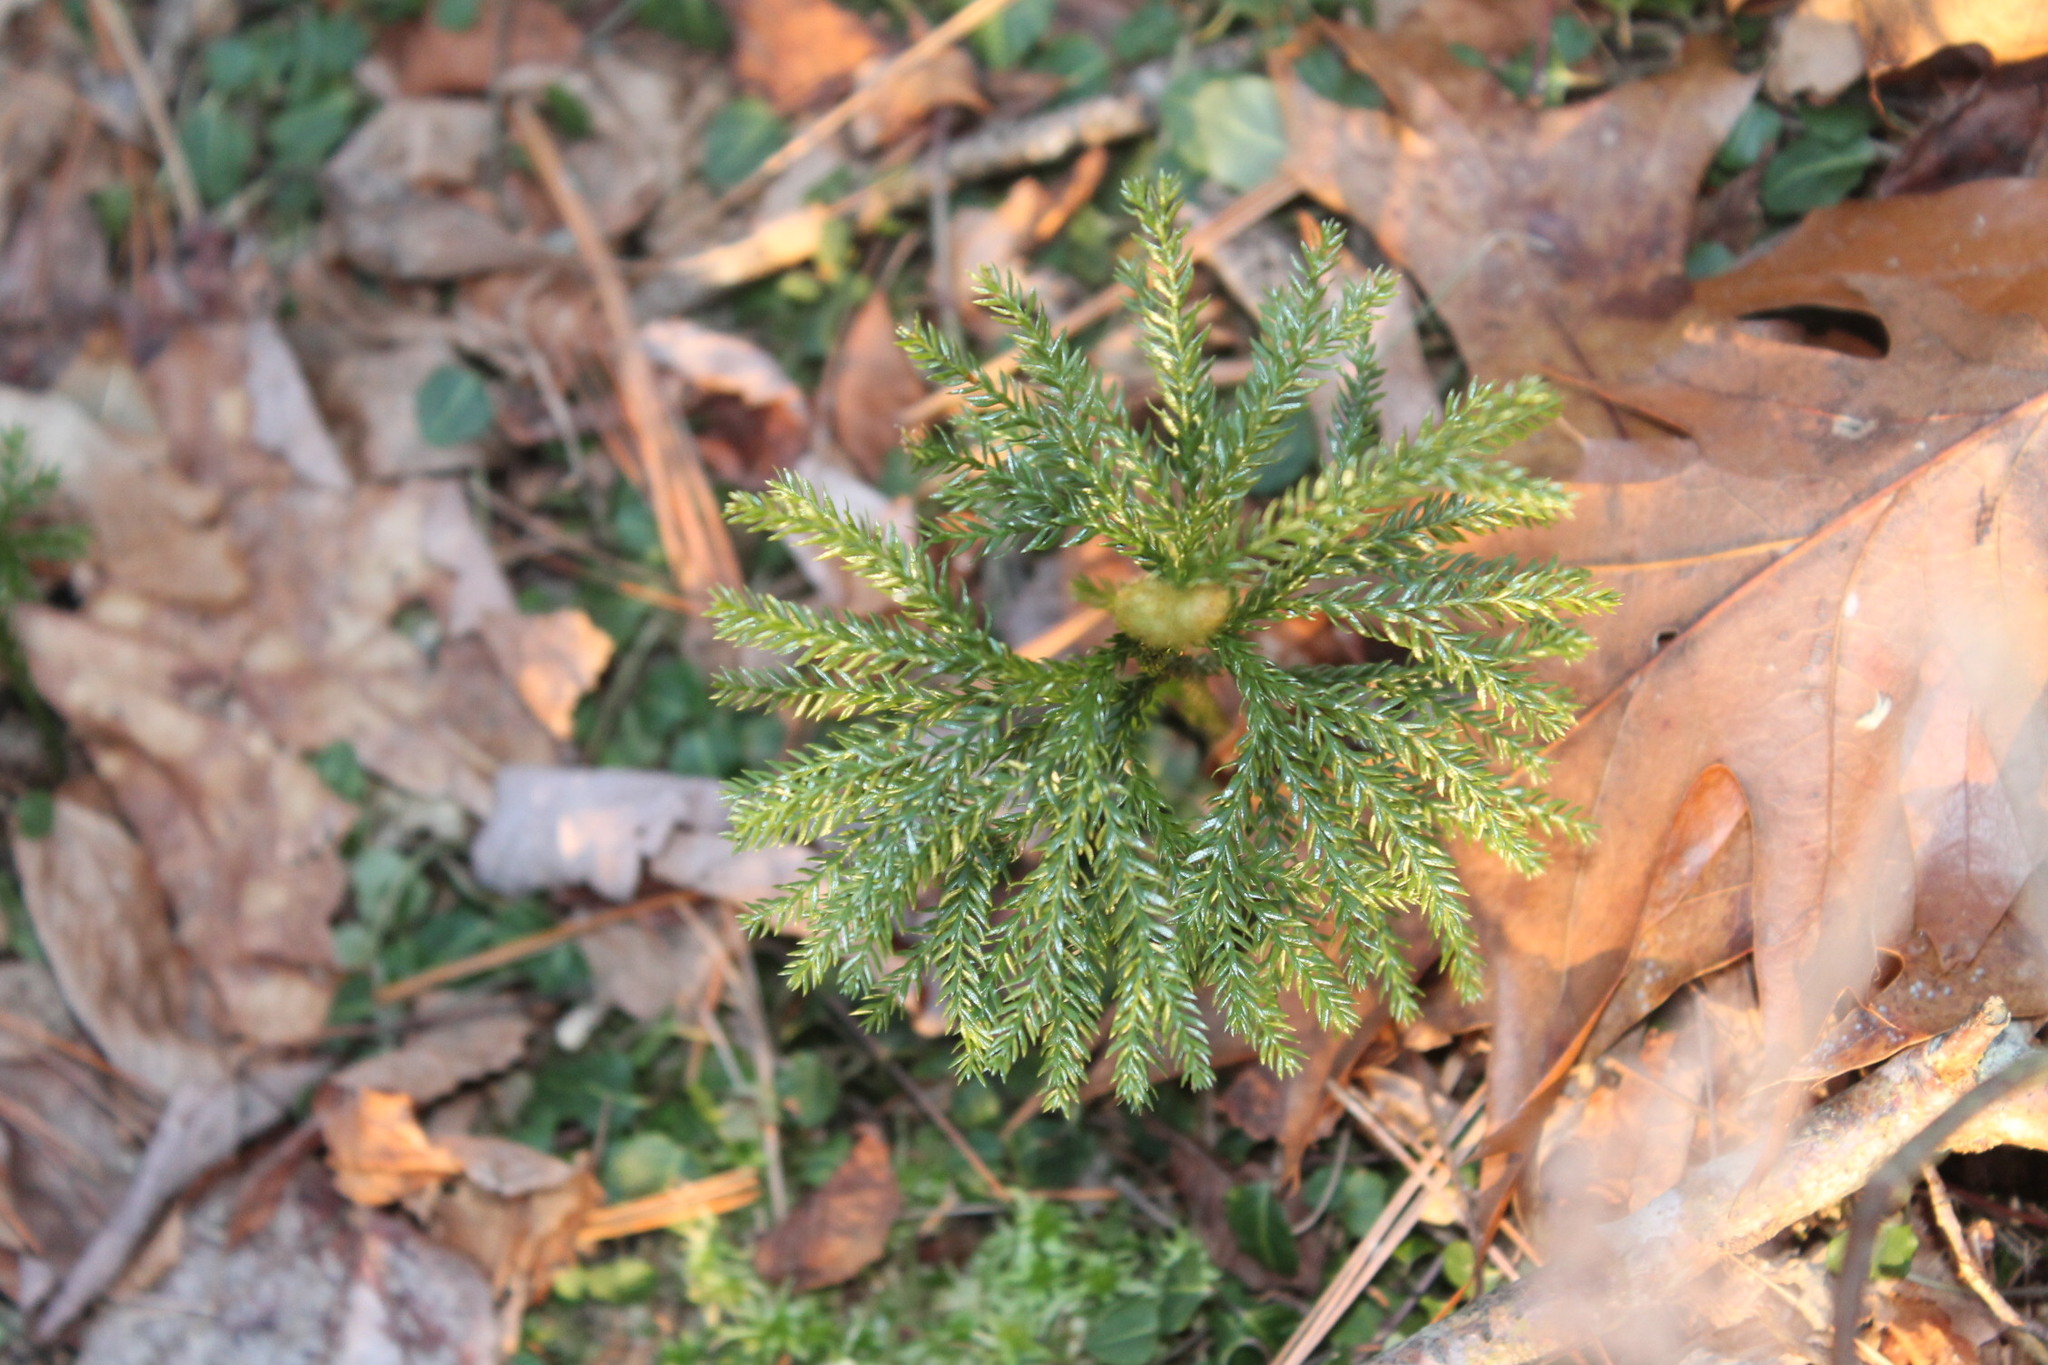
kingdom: Plantae
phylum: Tracheophyta
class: Lycopodiopsida
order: Lycopodiales
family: Lycopodiaceae
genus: Dendrolycopodium
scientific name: Dendrolycopodium obscurum
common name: Common ground-pine
